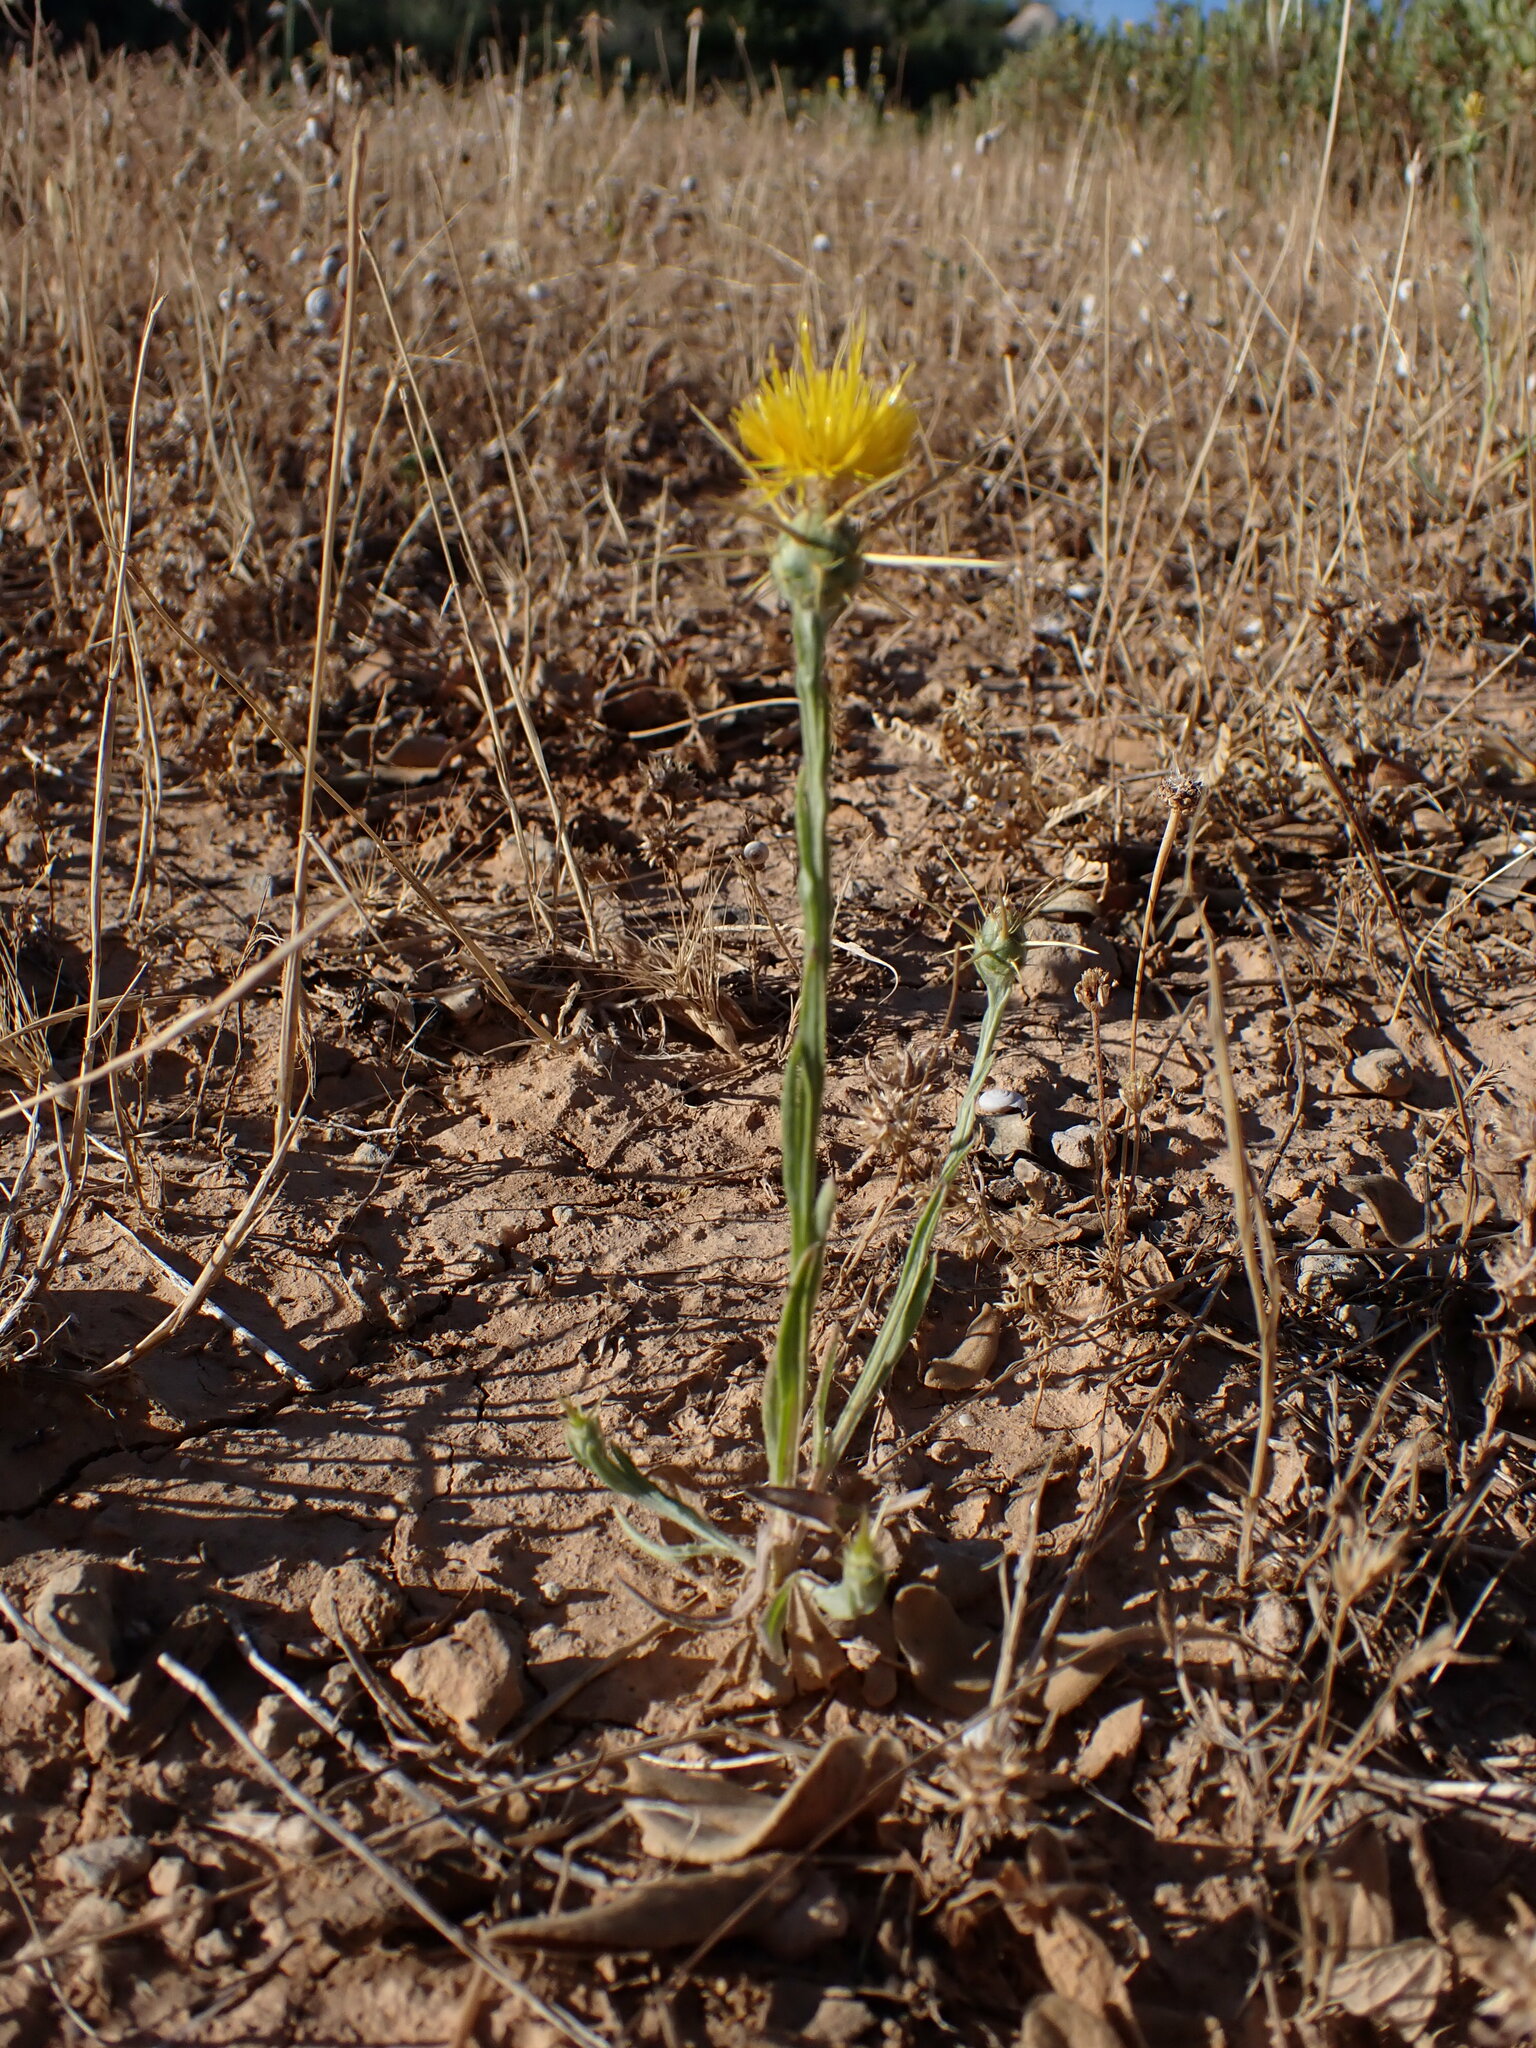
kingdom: Plantae
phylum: Tracheophyta
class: Magnoliopsida
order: Asterales
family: Asteraceae
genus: Centaurea
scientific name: Centaurea solstitialis
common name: Yellow star-thistle
